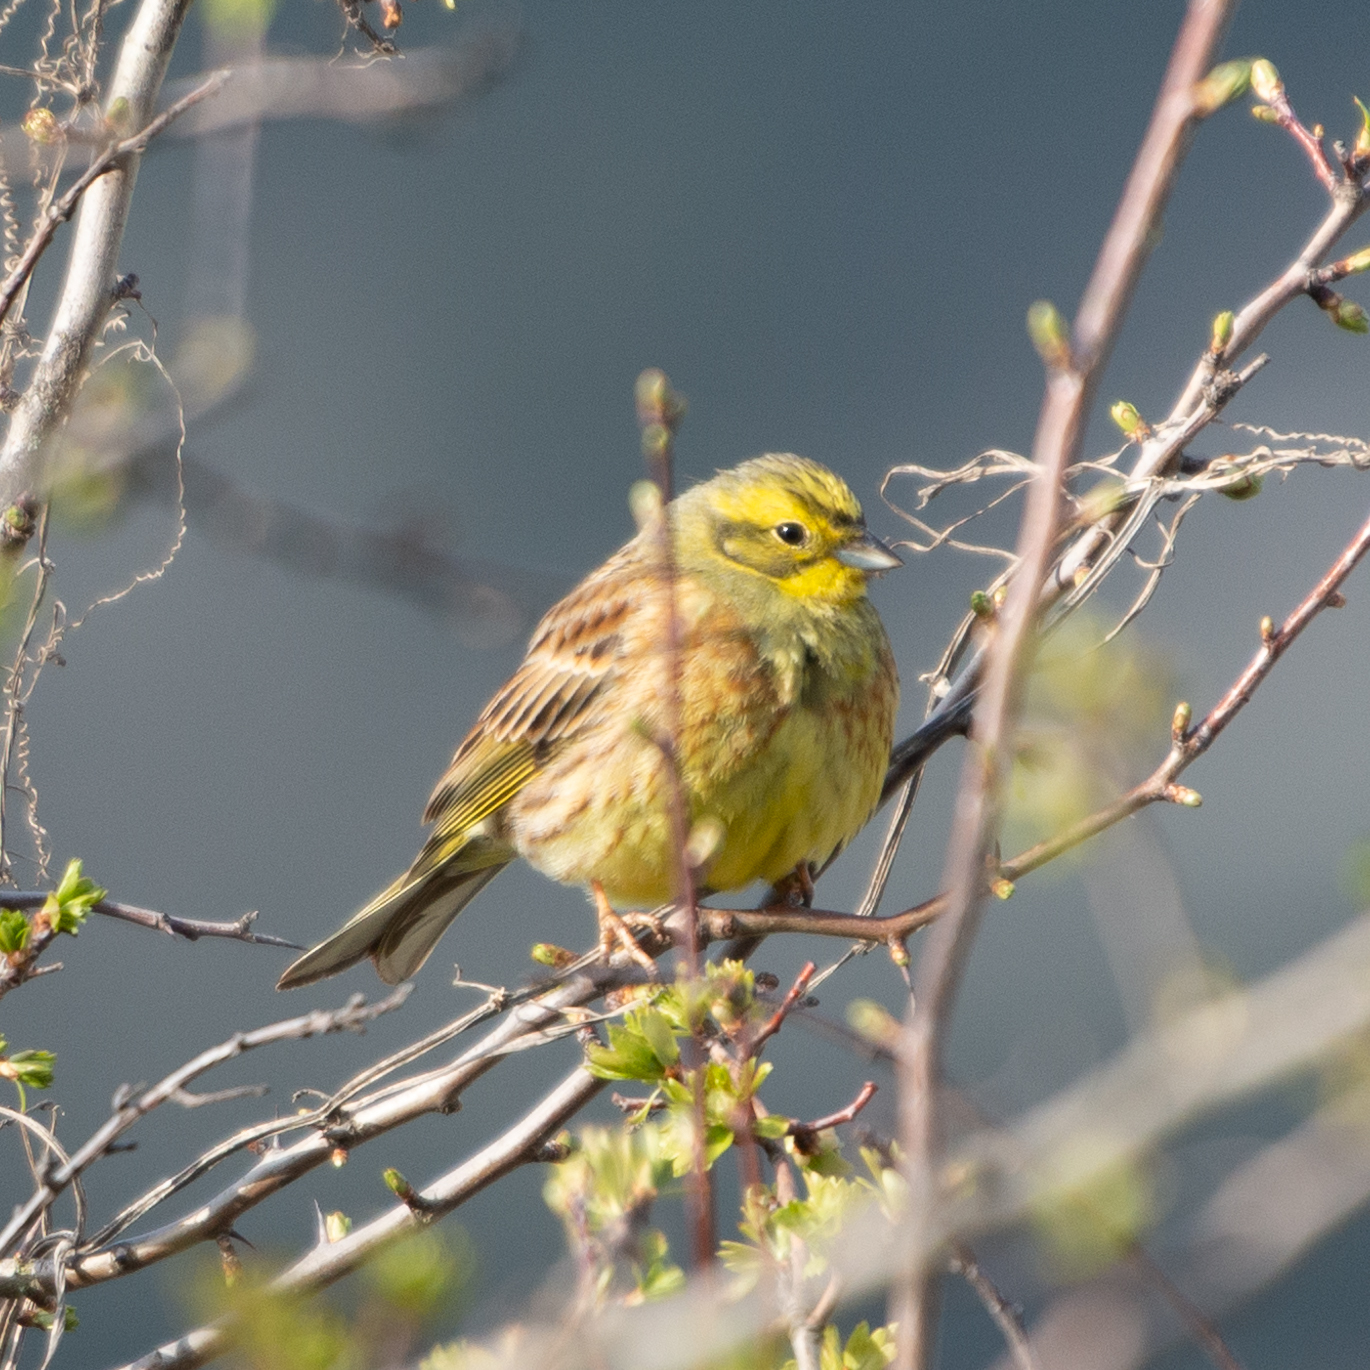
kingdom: Animalia
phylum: Chordata
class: Aves
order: Passeriformes
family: Emberizidae
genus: Emberiza
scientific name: Emberiza citrinella
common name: Yellowhammer
